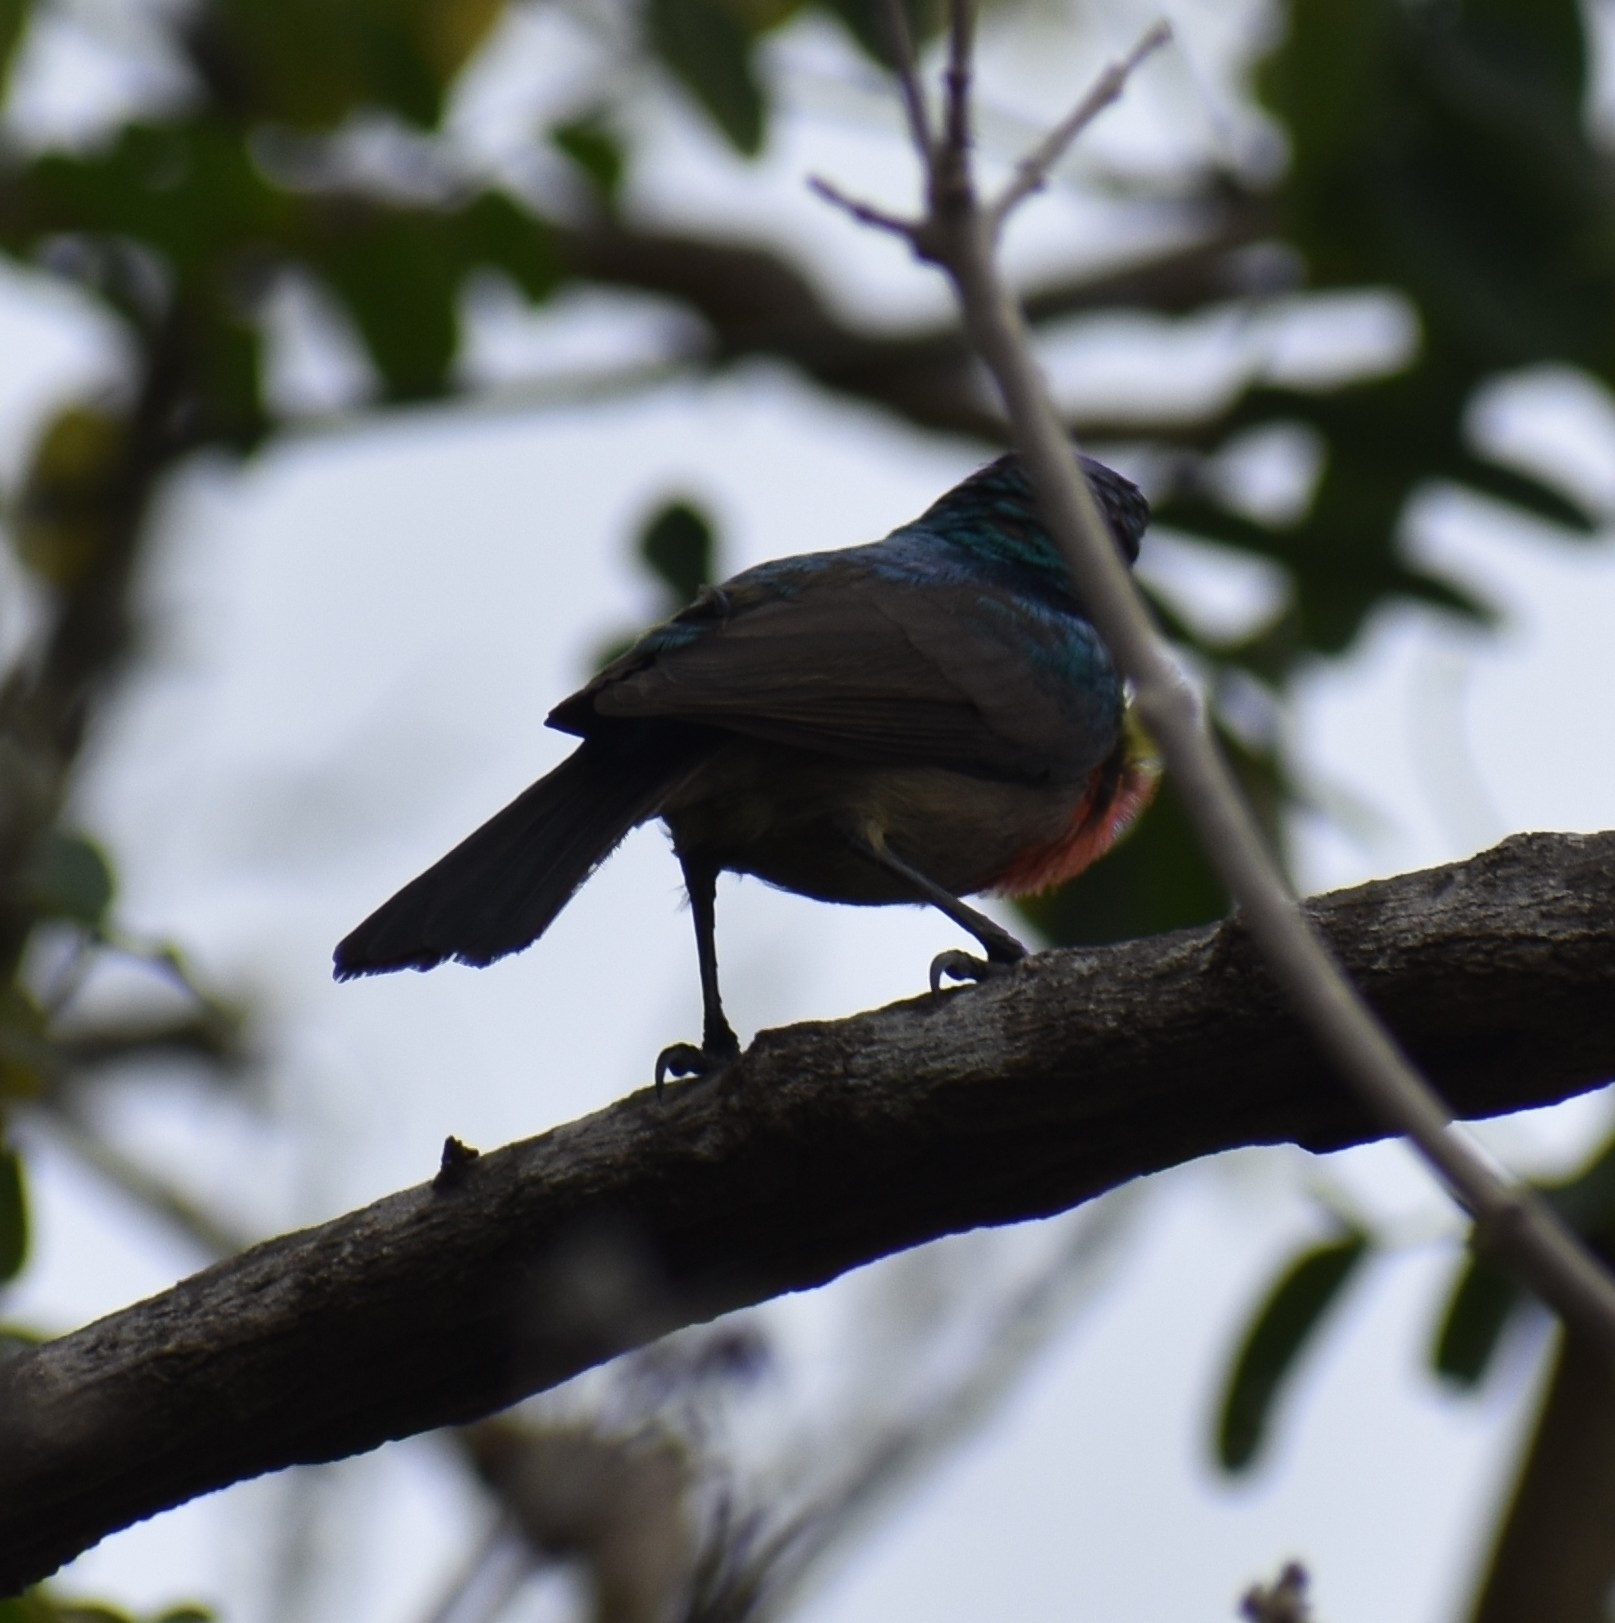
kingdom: Animalia
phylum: Chordata
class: Aves
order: Passeriformes
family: Nectariniidae
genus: Cinnyris
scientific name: Cinnyris afer
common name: Greater double-collared sunbird
